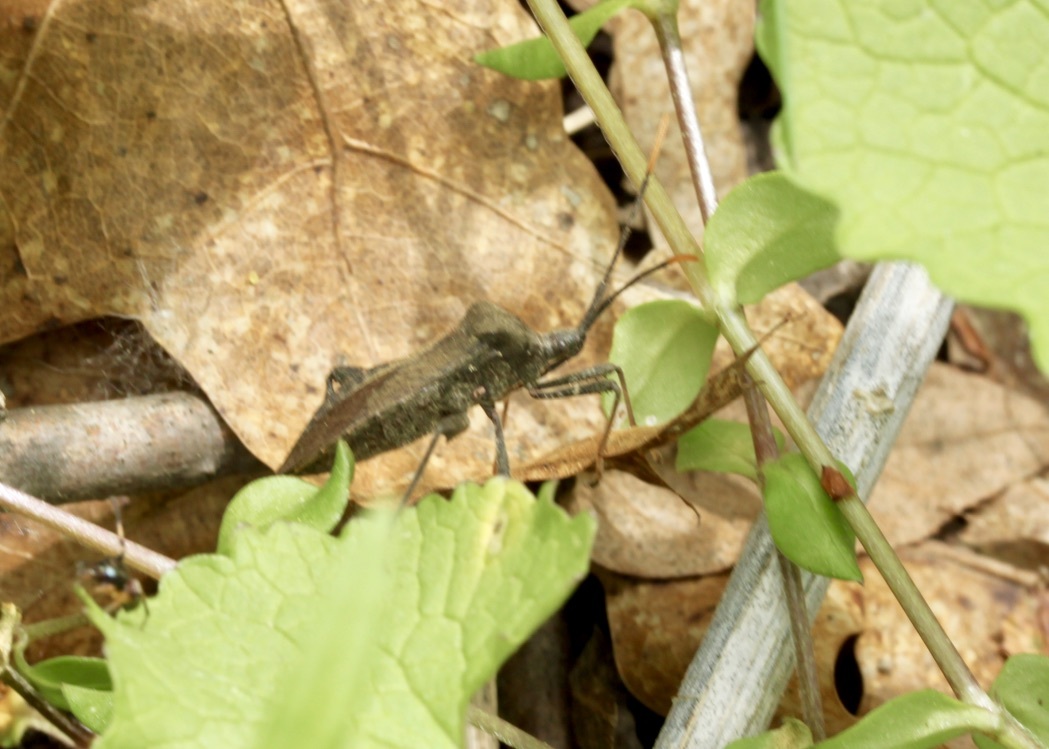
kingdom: Animalia
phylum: Arthropoda
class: Insecta
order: Hemiptera
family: Coreidae
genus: Acanthocephala
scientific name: Acanthocephala terminalis
